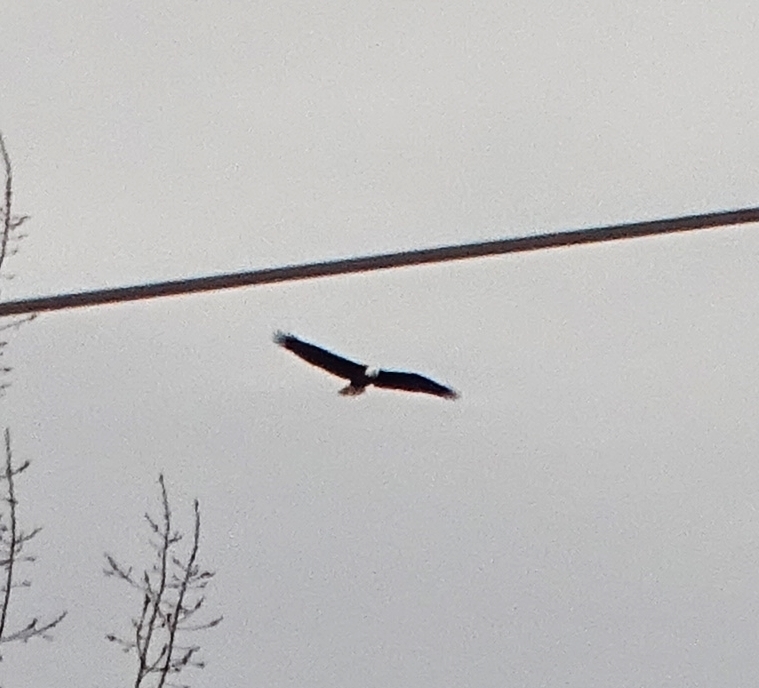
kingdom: Animalia
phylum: Chordata
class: Aves
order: Accipitriformes
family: Accipitridae
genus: Haliaeetus
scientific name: Haliaeetus leucocephalus
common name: Bald eagle
